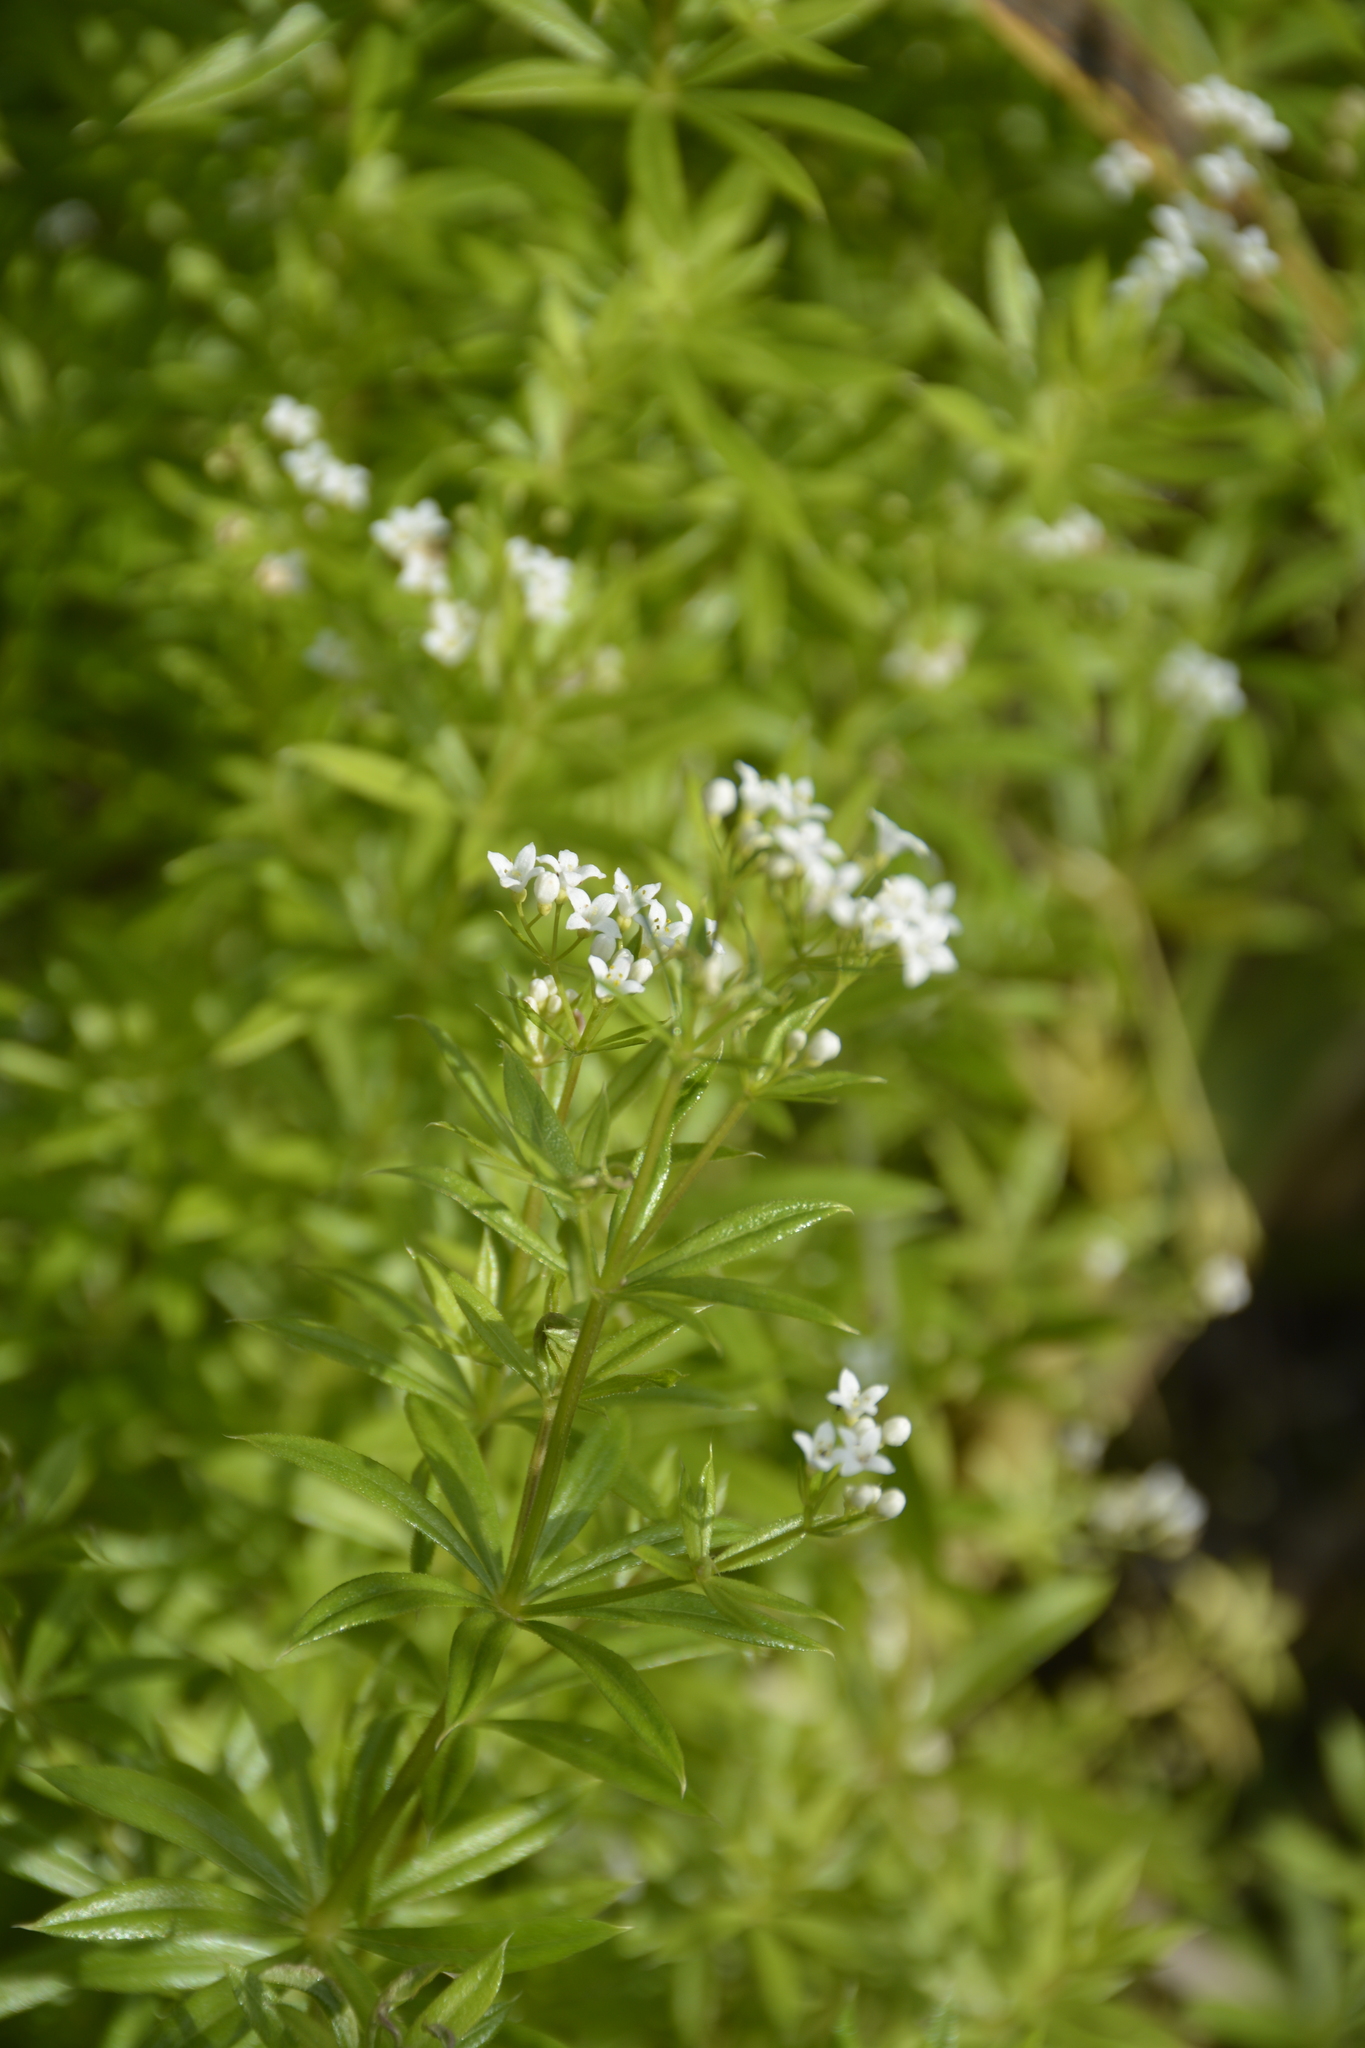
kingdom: Plantae
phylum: Tracheophyta
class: Magnoliopsida
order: Gentianales
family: Rubiaceae
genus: Galium
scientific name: Galium rivale
